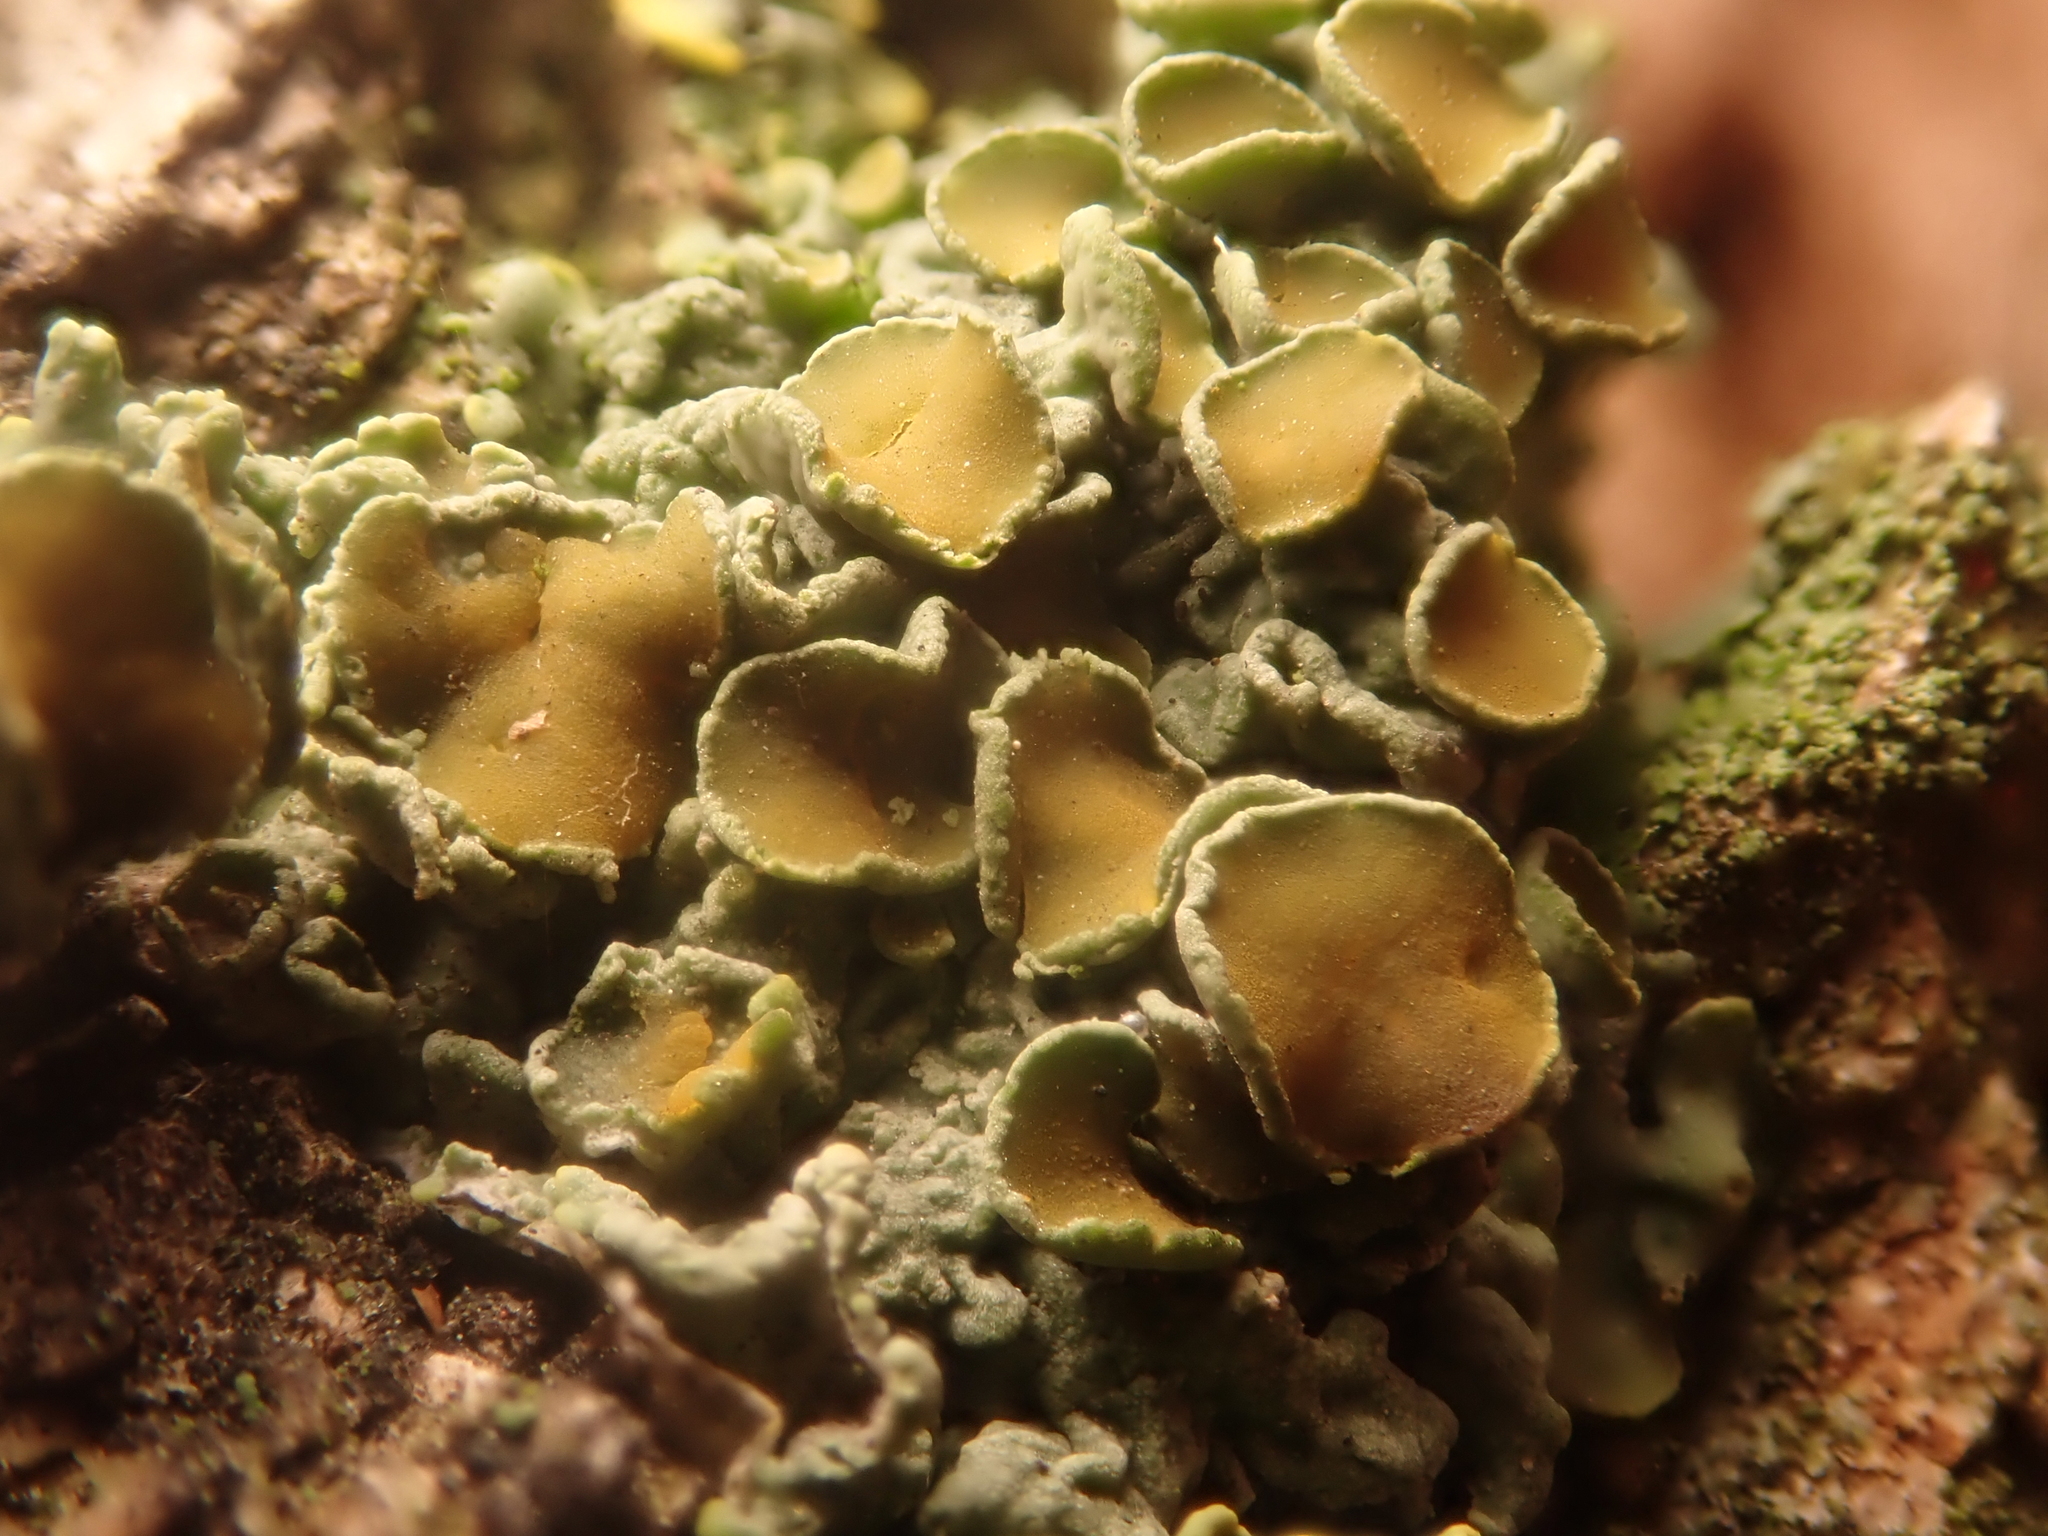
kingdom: Fungi
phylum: Ascomycota
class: Lecanoromycetes
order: Teloschistales
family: Teloschistaceae
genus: Xanthoria
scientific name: Xanthoria parietina
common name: Common orange lichen
